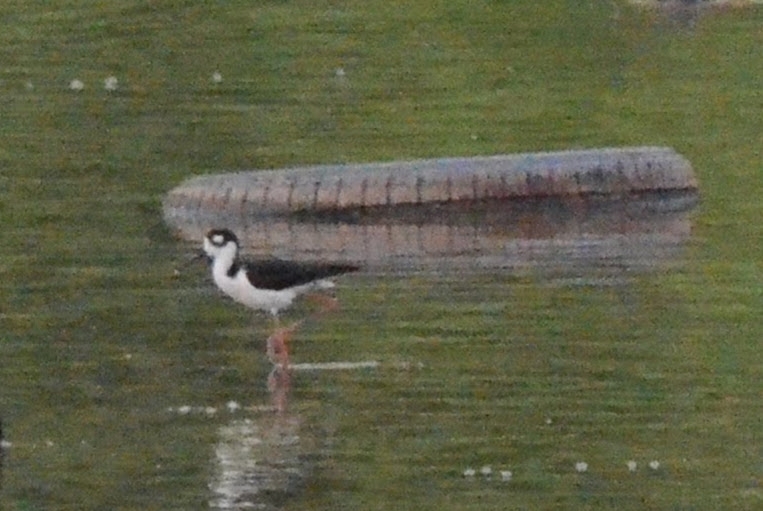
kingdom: Animalia
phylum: Chordata
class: Aves
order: Charadriiformes
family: Recurvirostridae
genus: Himantopus
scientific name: Himantopus mexicanus
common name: Black-necked stilt
